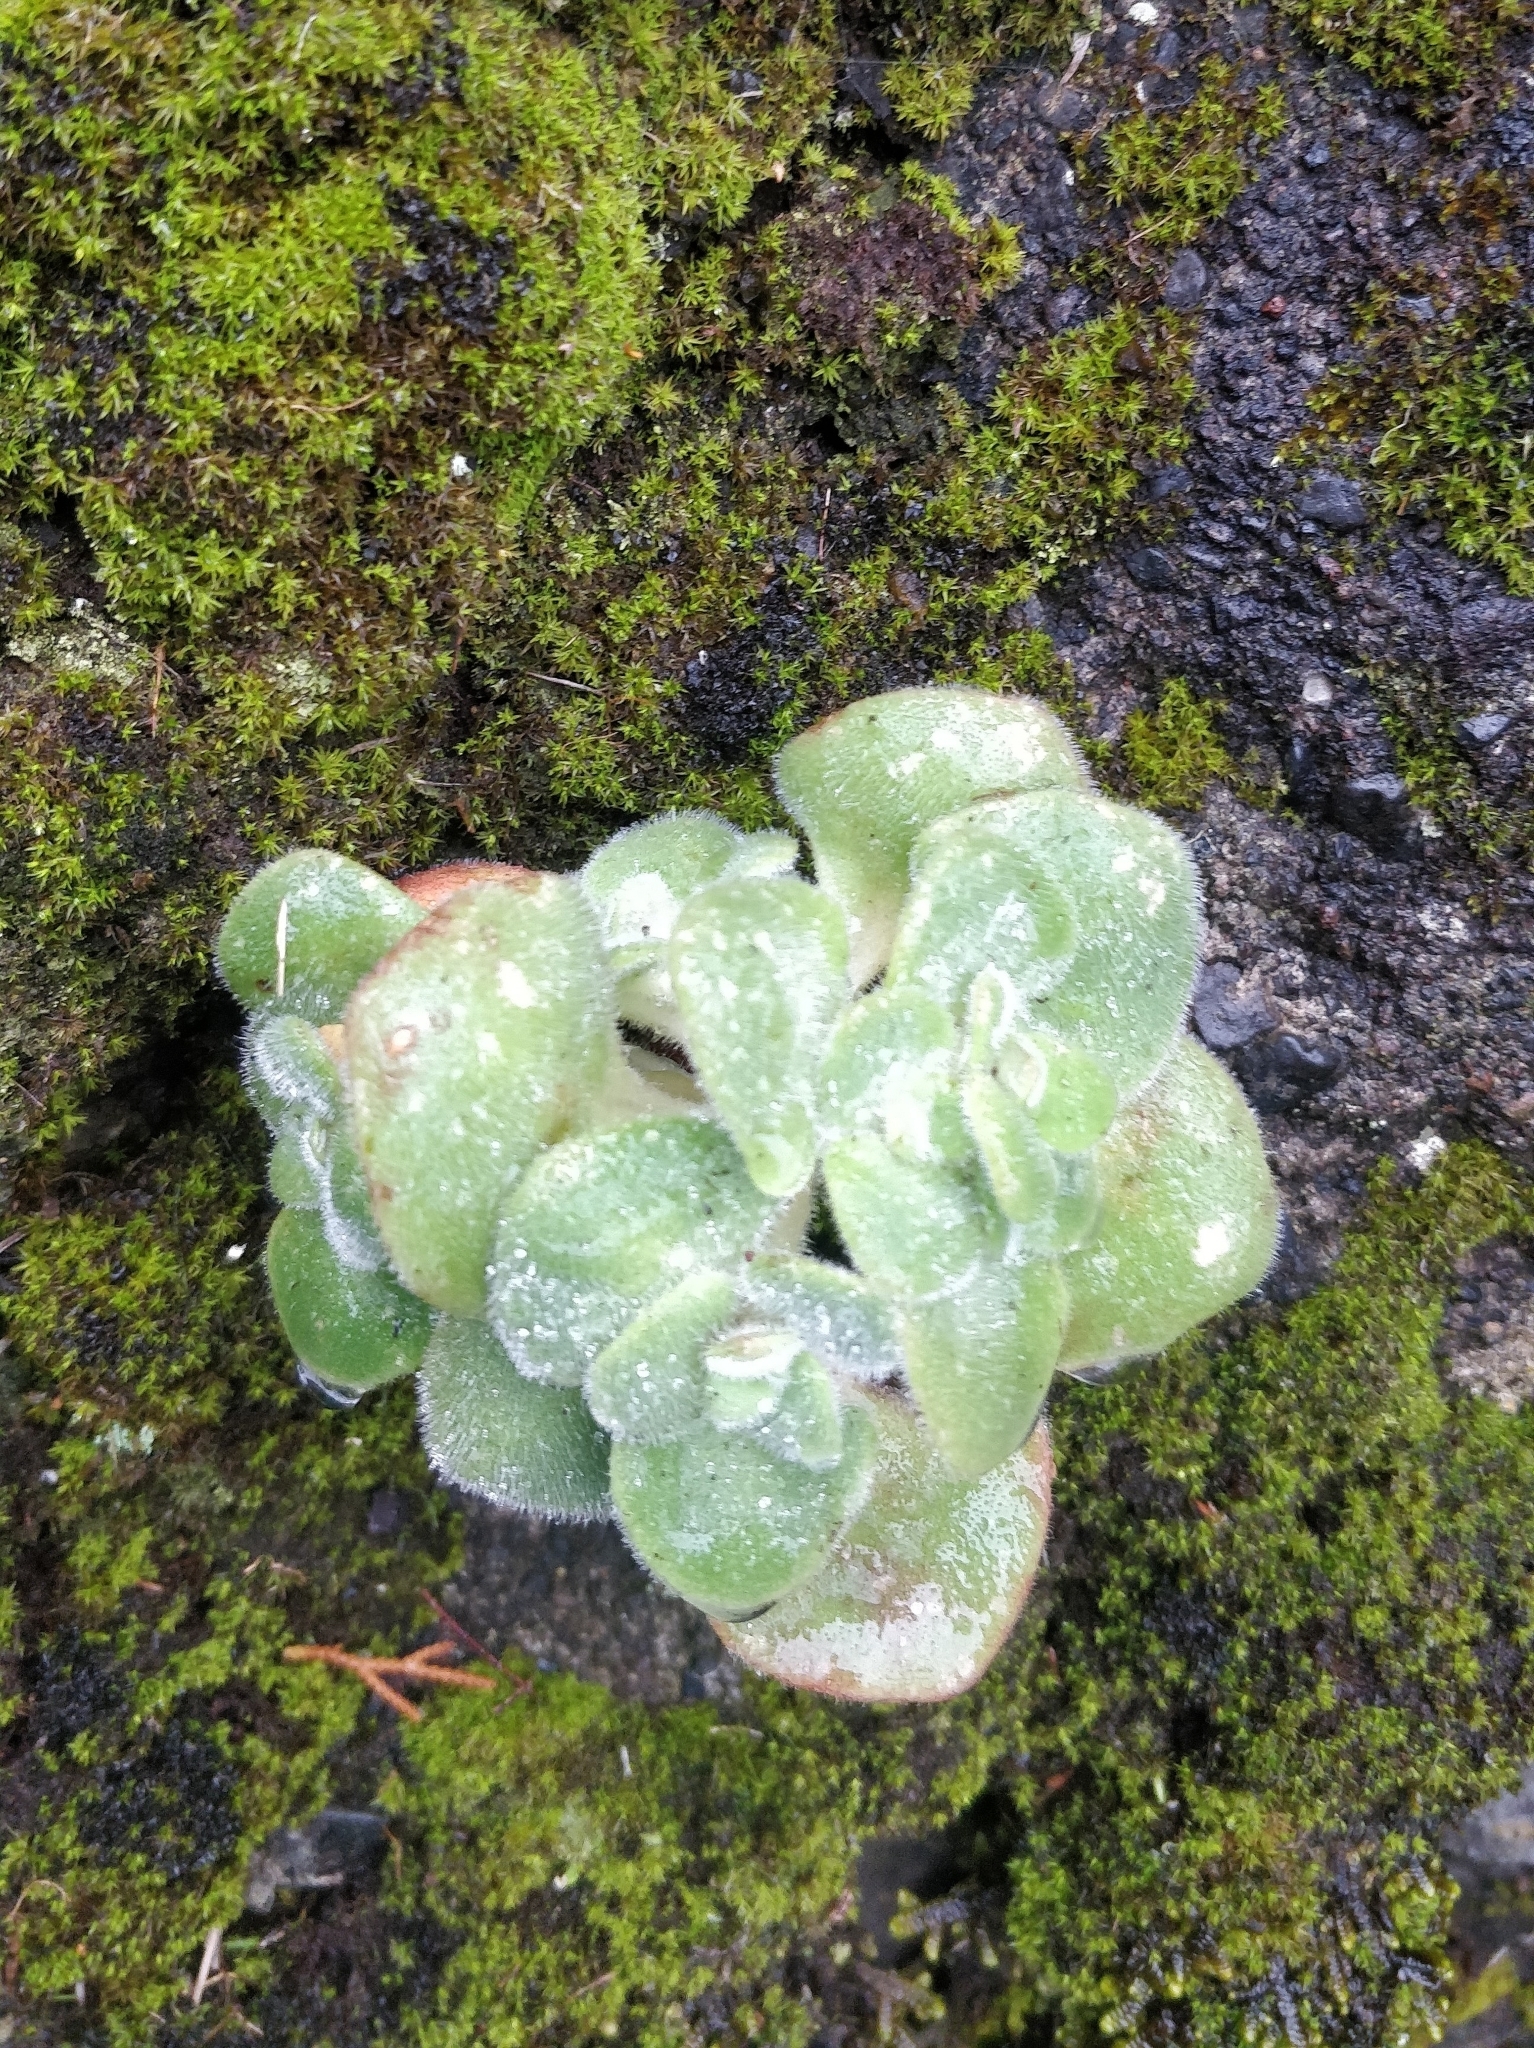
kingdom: Plantae
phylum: Tracheophyta
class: Magnoliopsida
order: Saxifragales
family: Crassulaceae
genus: Aichryson
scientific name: Aichryson villosum
